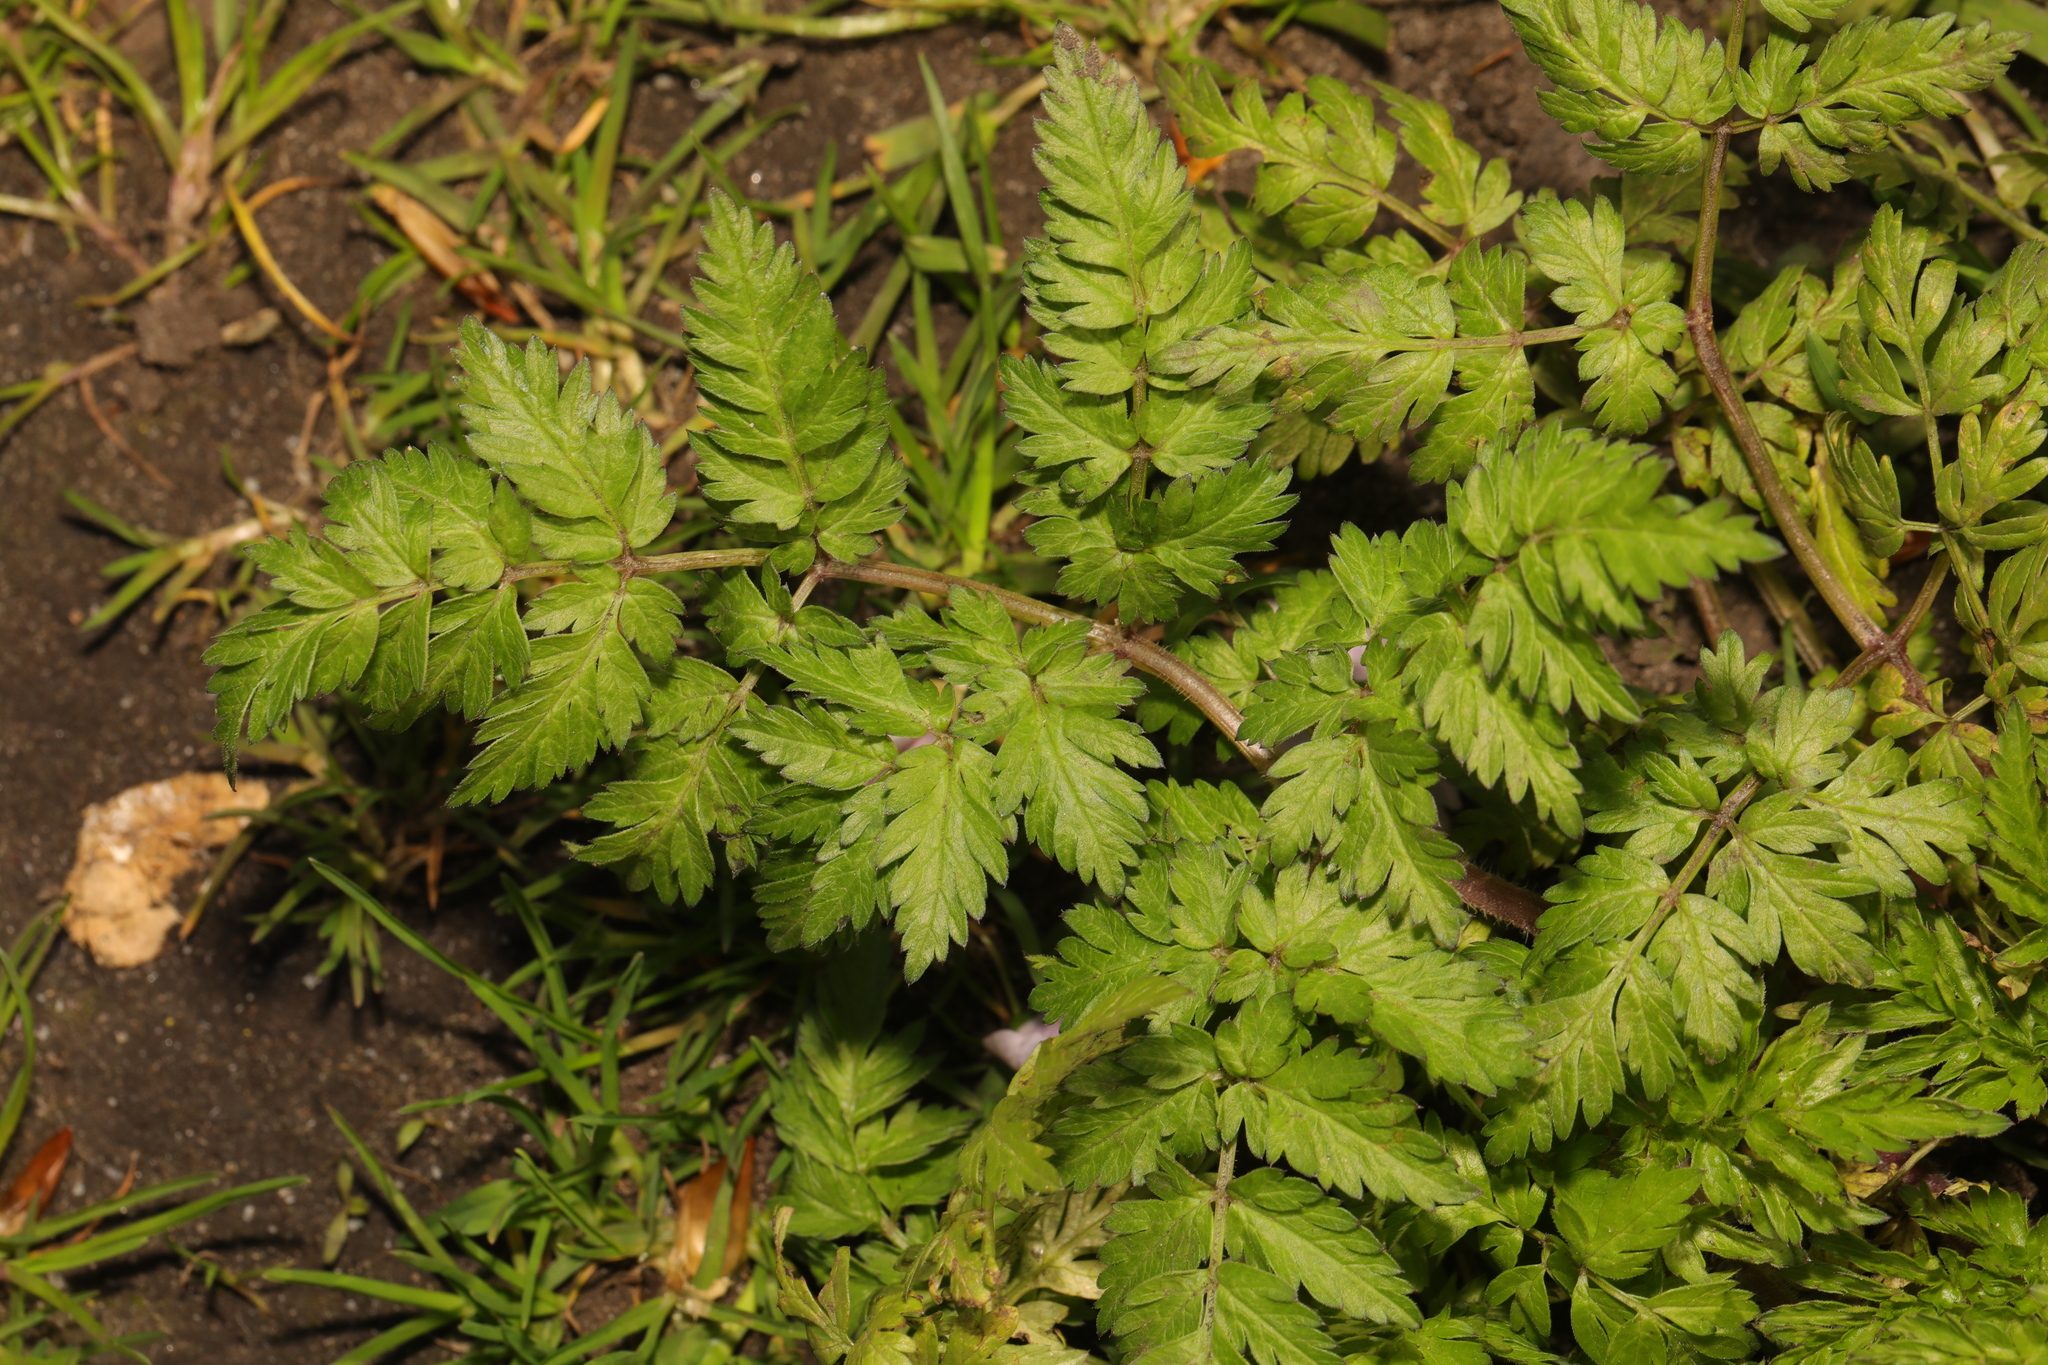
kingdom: Plantae
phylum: Tracheophyta
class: Magnoliopsida
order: Apiales
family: Apiaceae
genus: Anthriscus
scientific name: Anthriscus sylvestris
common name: Cow parsley
